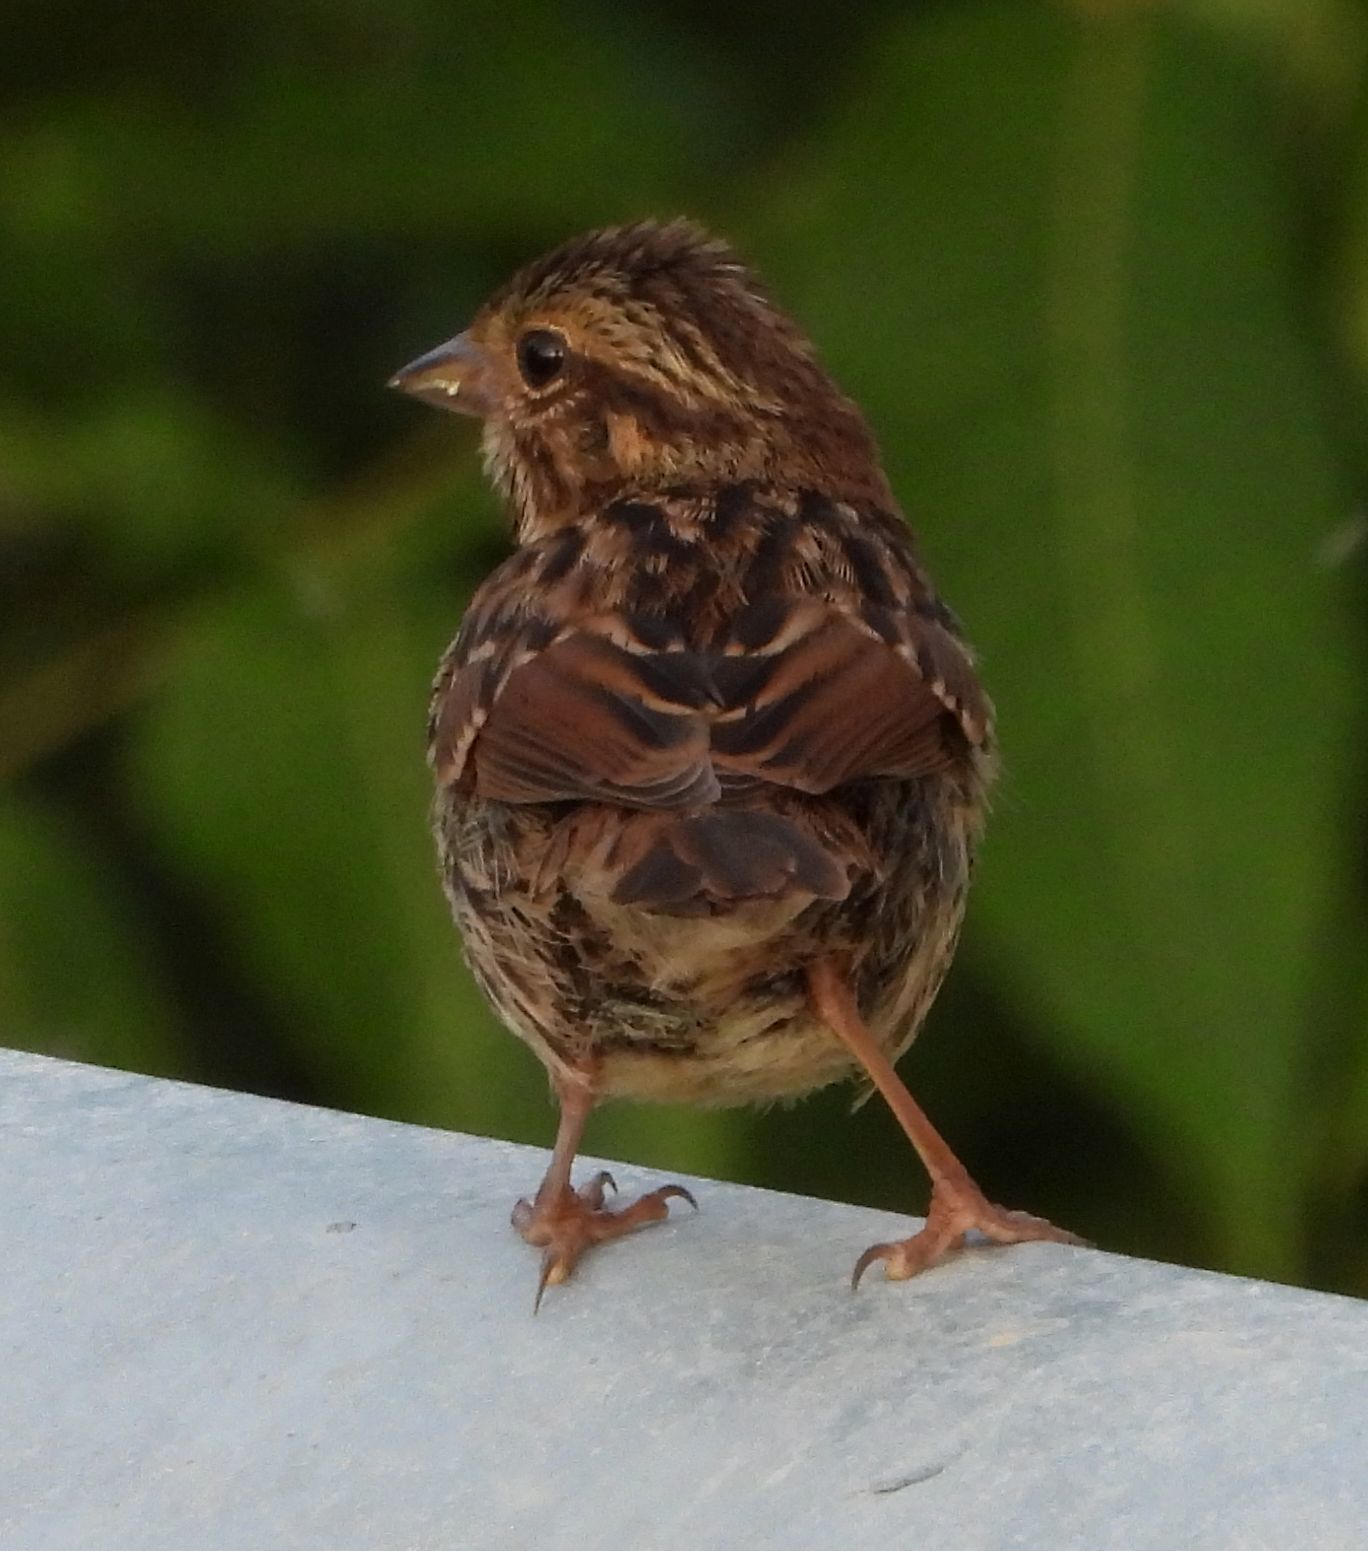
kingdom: Animalia
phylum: Chordata
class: Aves
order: Passeriformes
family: Passerellidae
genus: Melospiza
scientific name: Melospiza melodia
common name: Song sparrow
